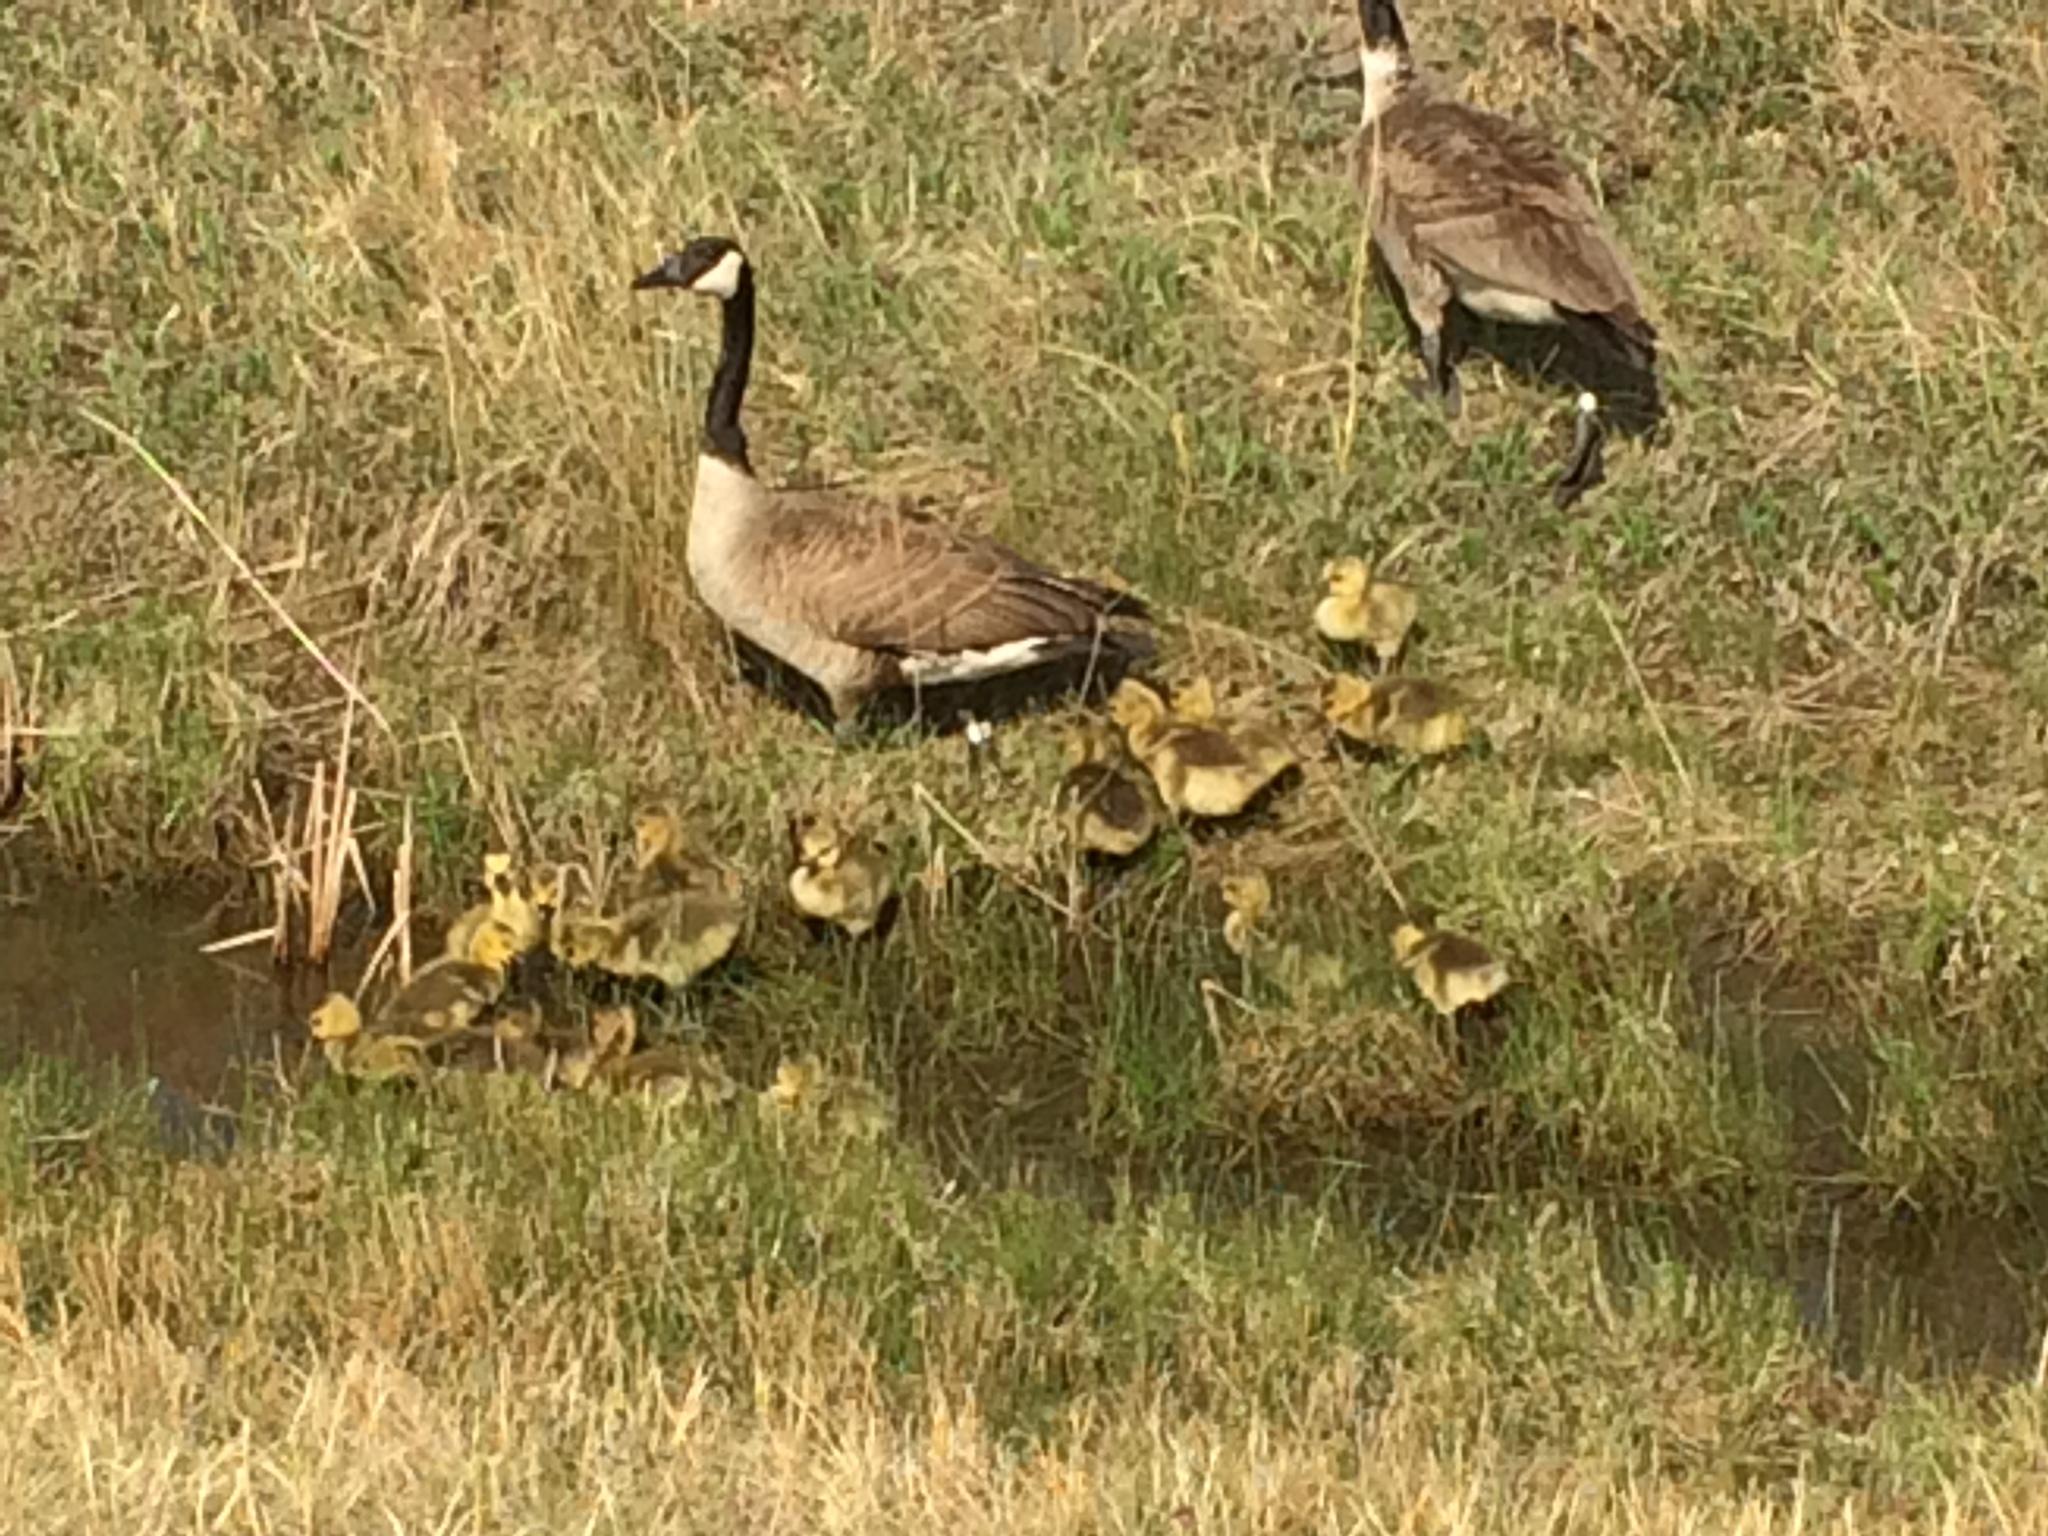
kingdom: Animalia
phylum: Chordata
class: Aves
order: Anseriformes
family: Anatidae
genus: Branta
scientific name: Branta canadensis
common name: Canada goose
